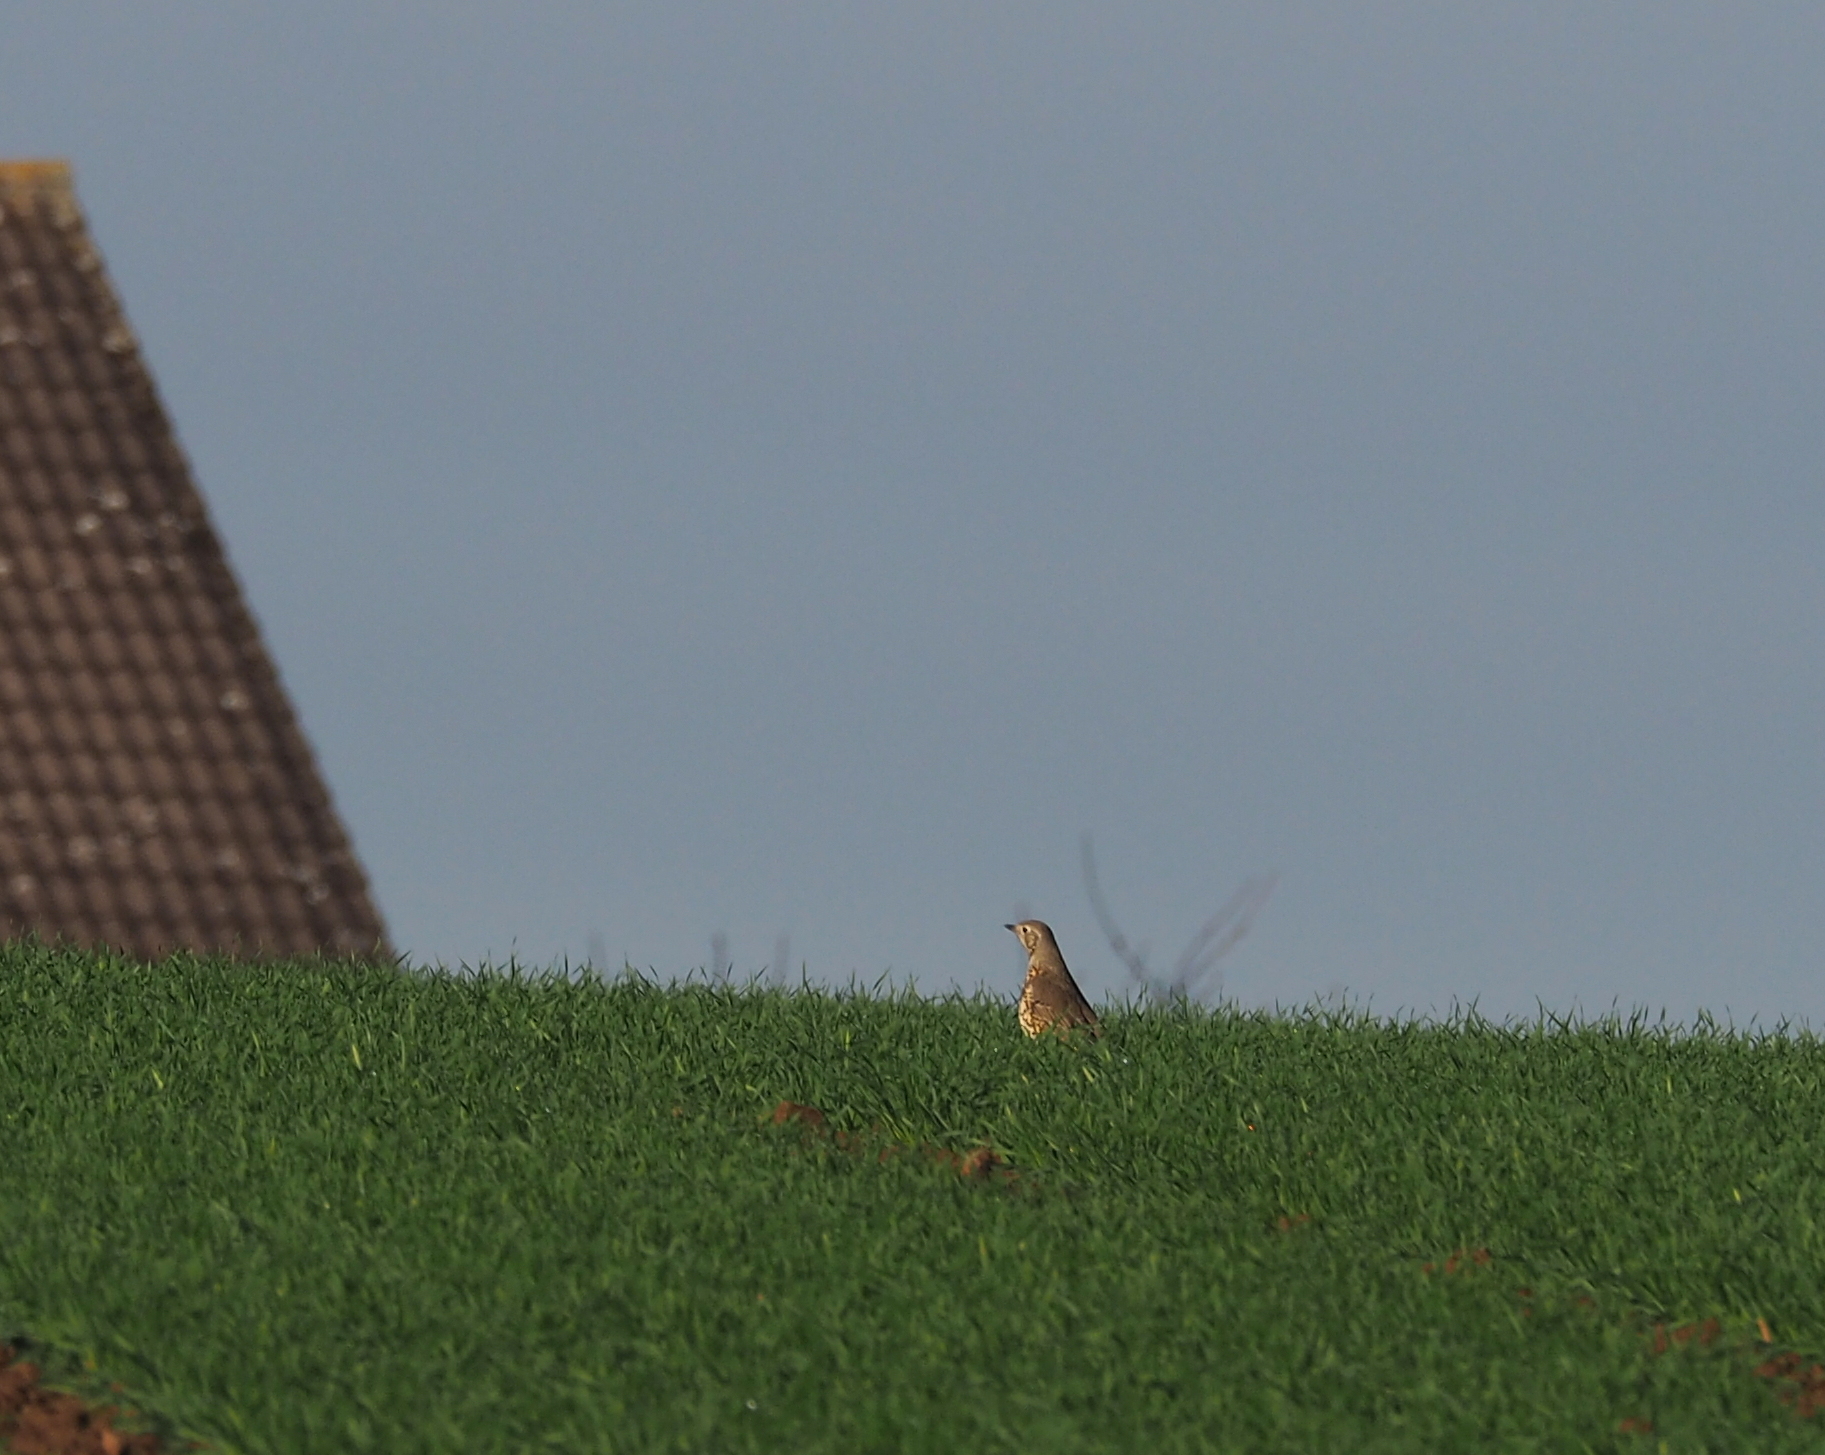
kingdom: Animalia
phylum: Chordata
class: Aves
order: Passeriformes
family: Turdidae
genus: Turdus
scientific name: Turdus viscivorus
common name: Mistle thrush
